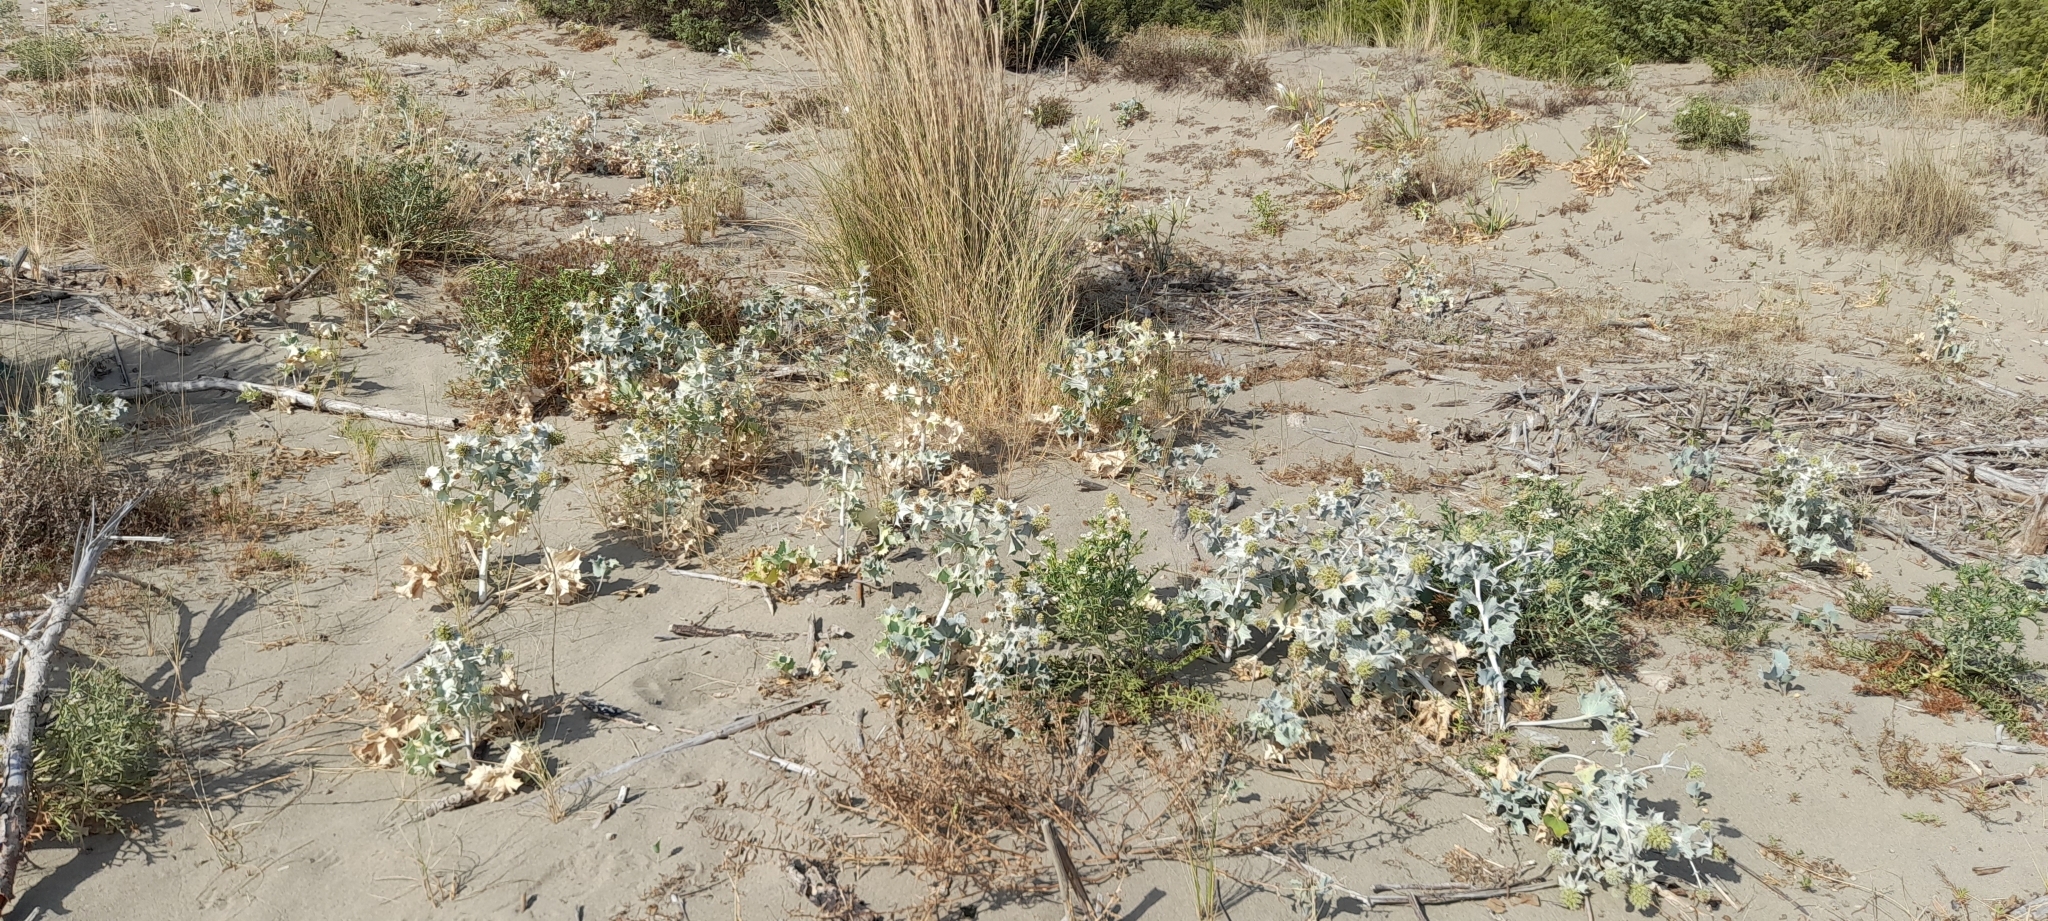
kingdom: Plantae
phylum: Tracheophyta
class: Magnoliopsida
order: Apiales
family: Apiaceae
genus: Eryngium
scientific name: Eryngium maritimum
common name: Sea-holly
